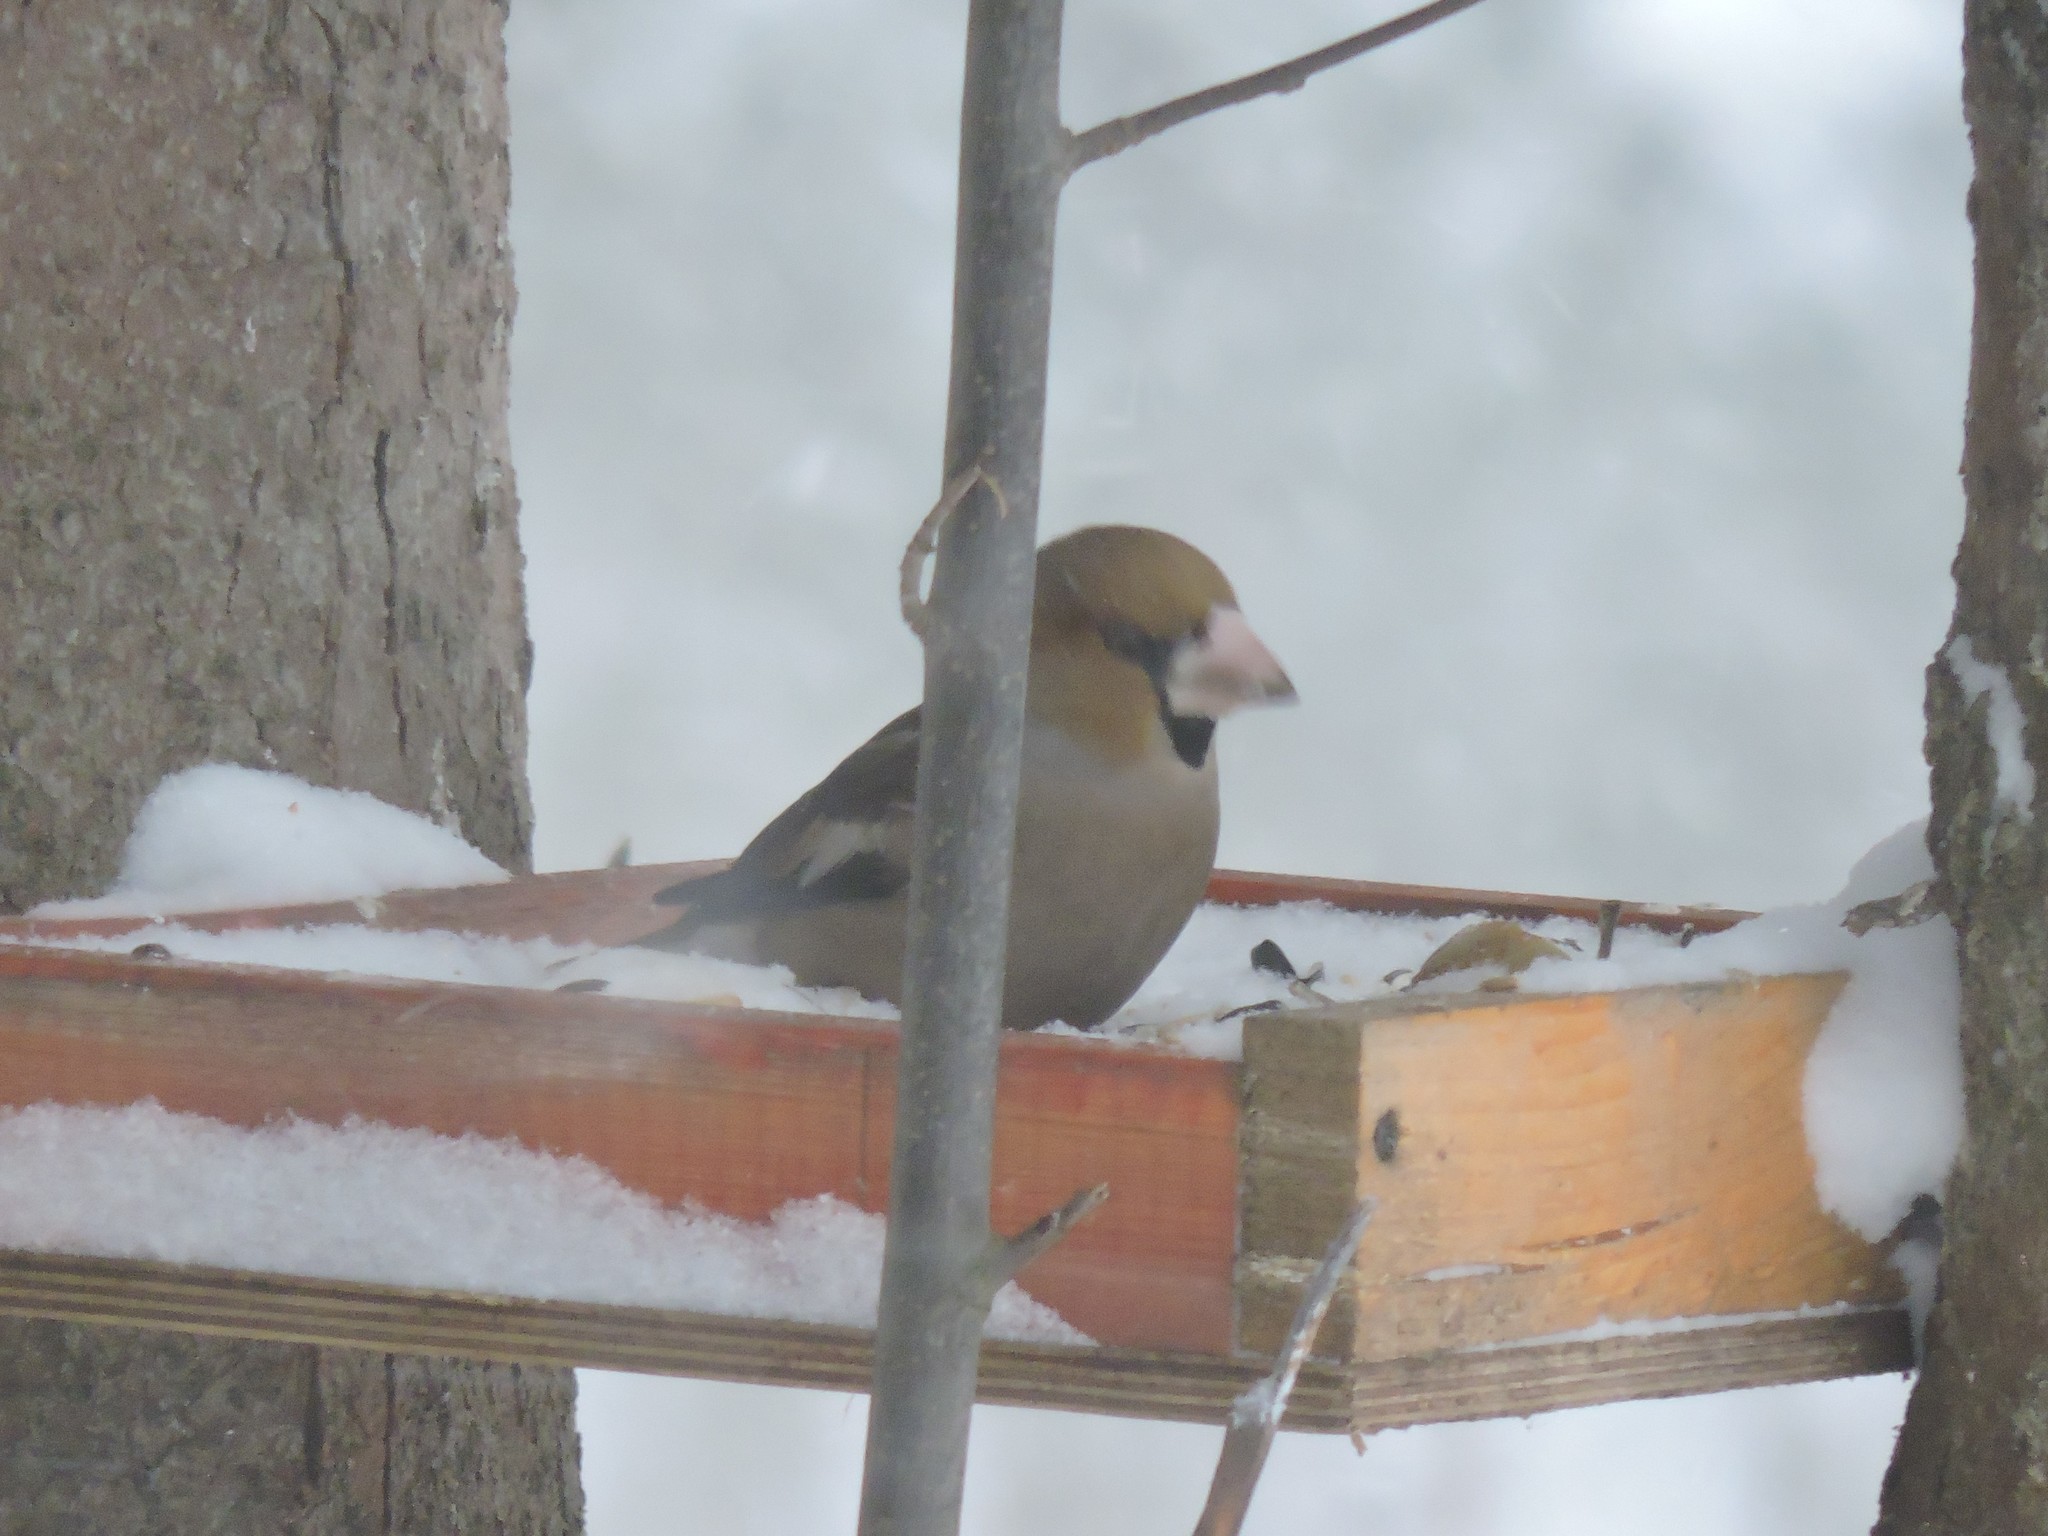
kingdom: Animalia
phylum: Chordata
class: Aves
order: Passeriformes
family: Fringillidae
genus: Coccothraustes
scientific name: Coccothraustes coccothraustes
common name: Hawfinch
